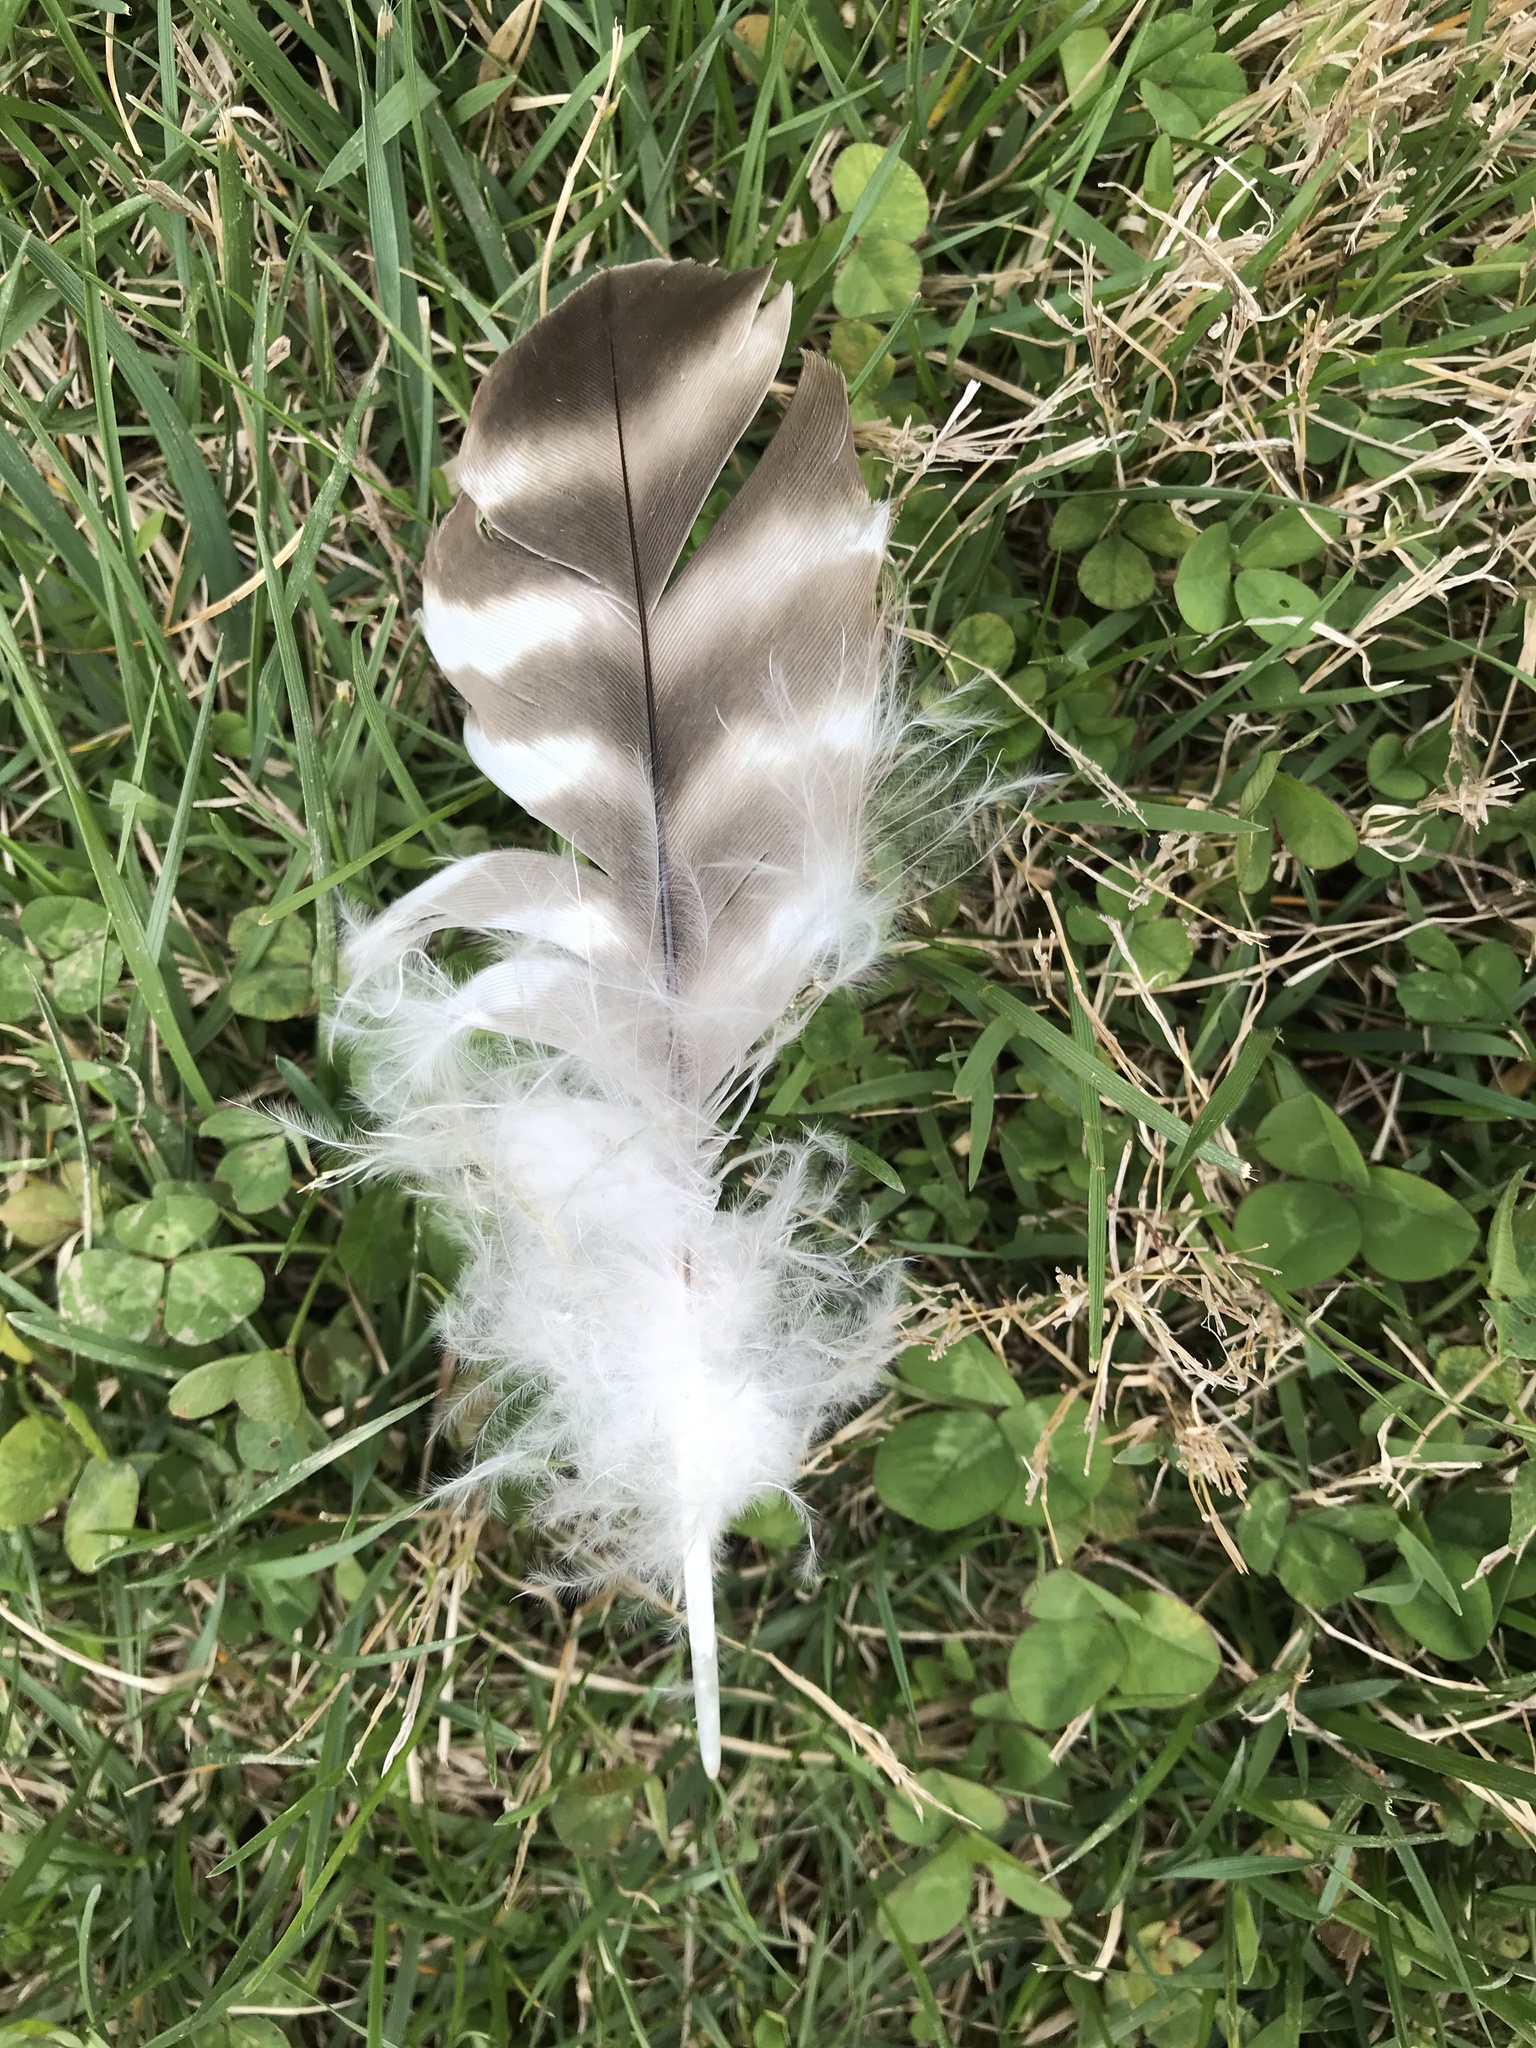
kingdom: Animalia
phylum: Chordata
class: Aves
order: Accipitriformes
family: Accipitridae
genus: Buteo
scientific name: Buteo lineatus
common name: Red-shouldered hawk
